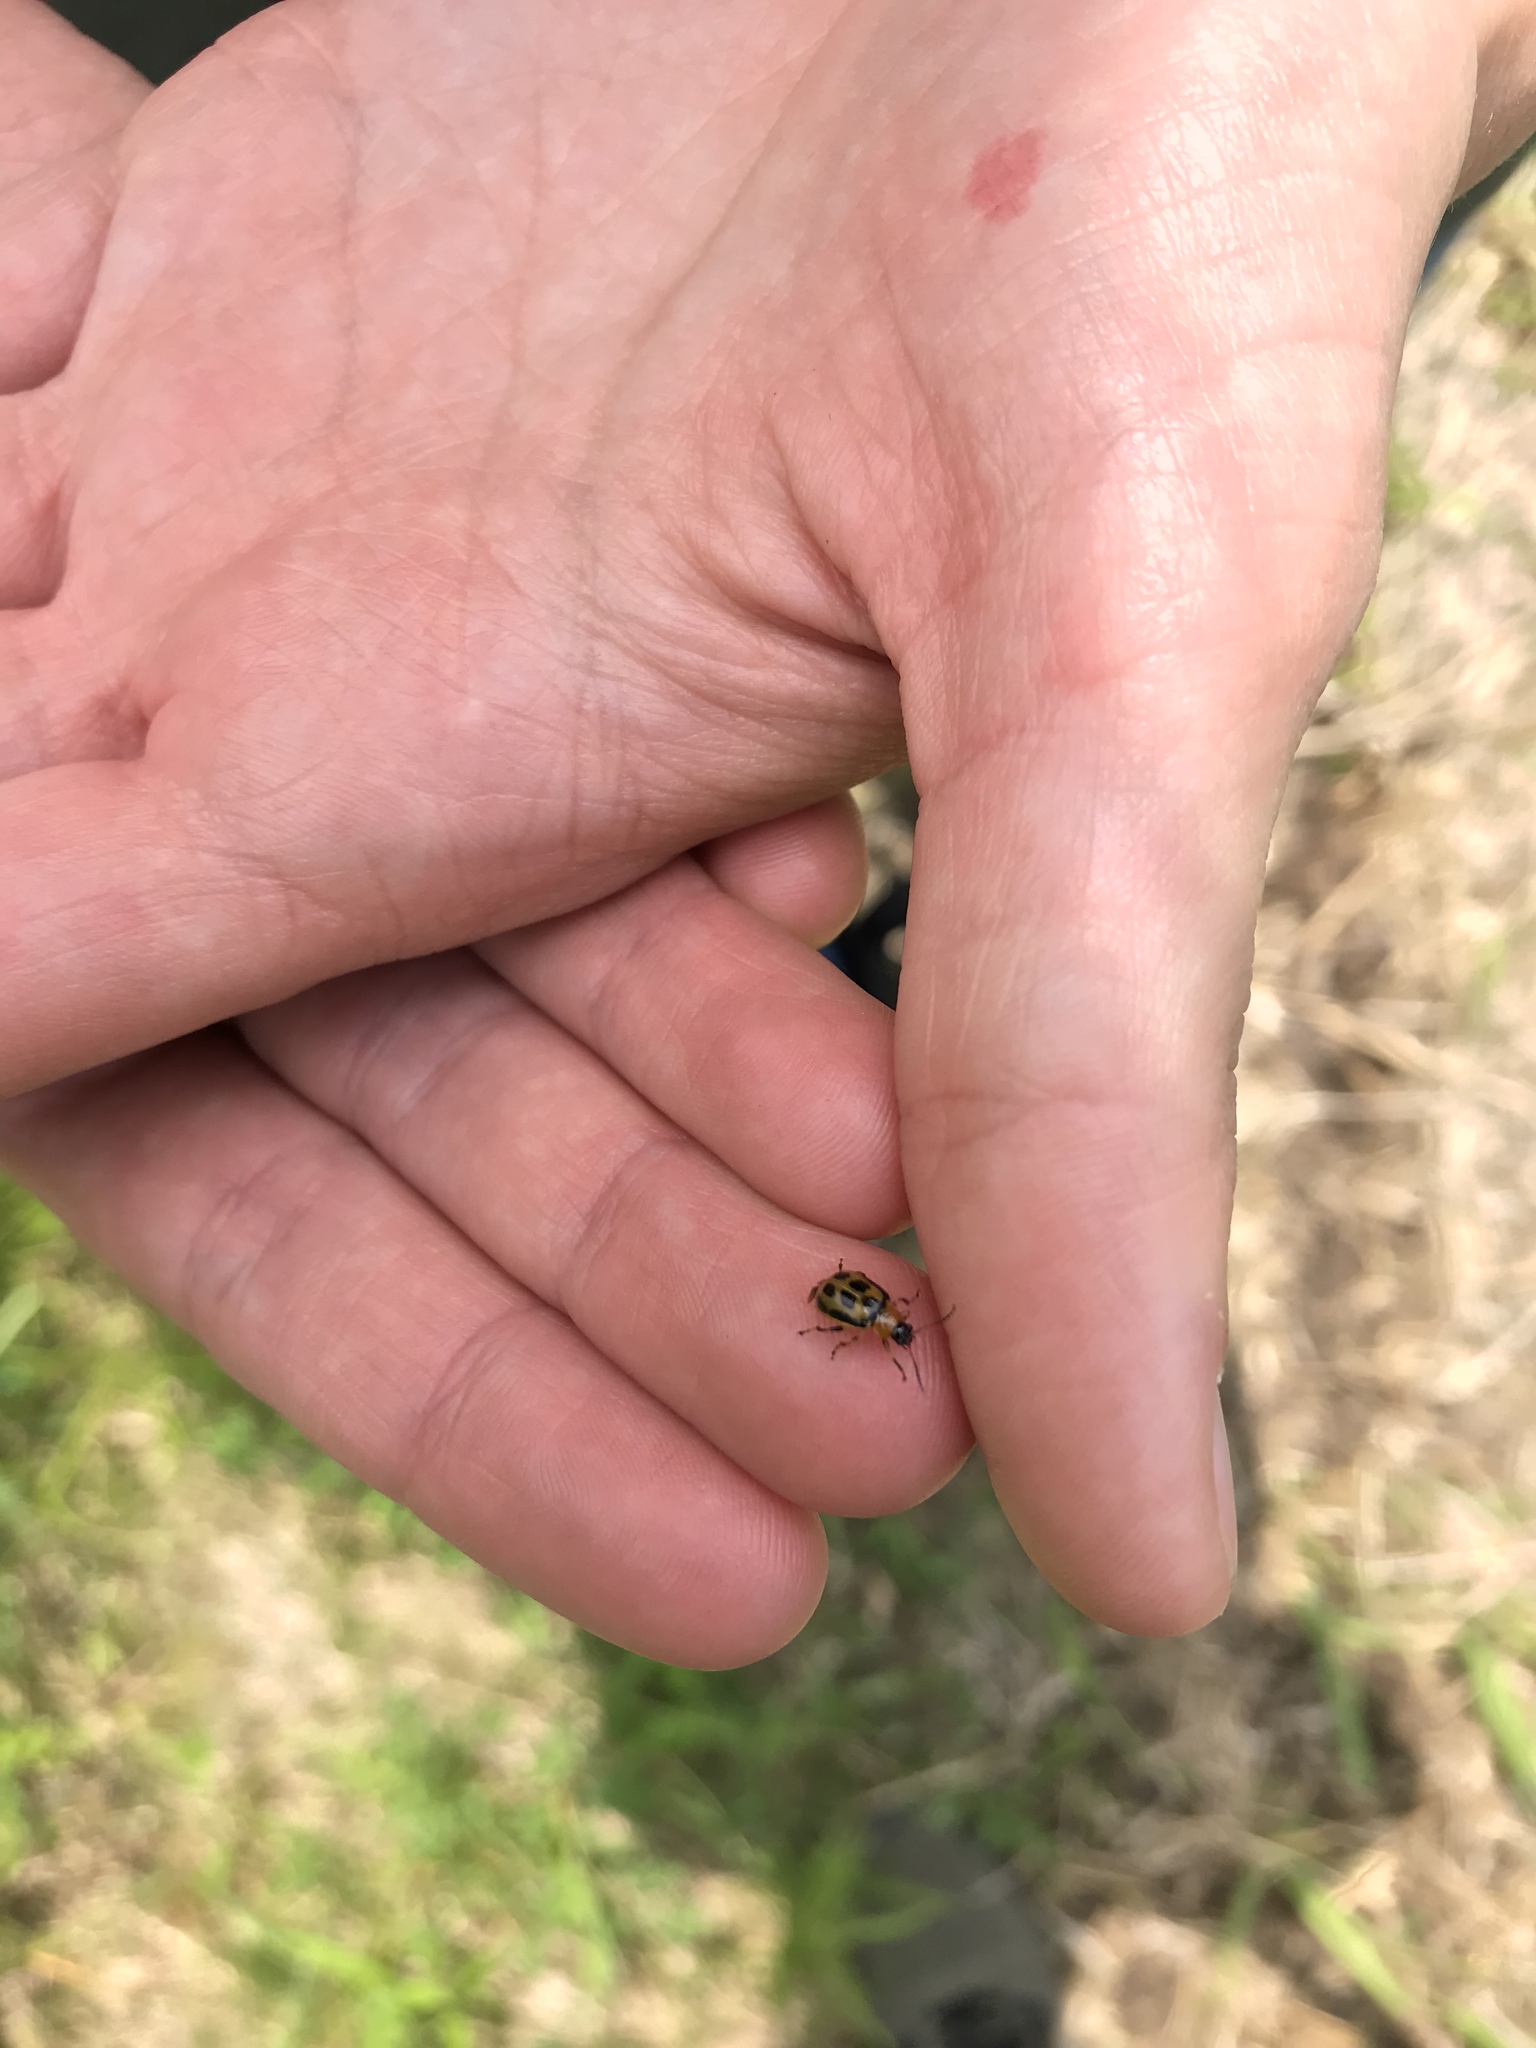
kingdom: Animalia
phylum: Arthropoda
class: Insecta
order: Coleoptera
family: Chrysomelidae
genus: Cerotoma
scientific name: Cerotoma trifurcata
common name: Bean leaf beetle
